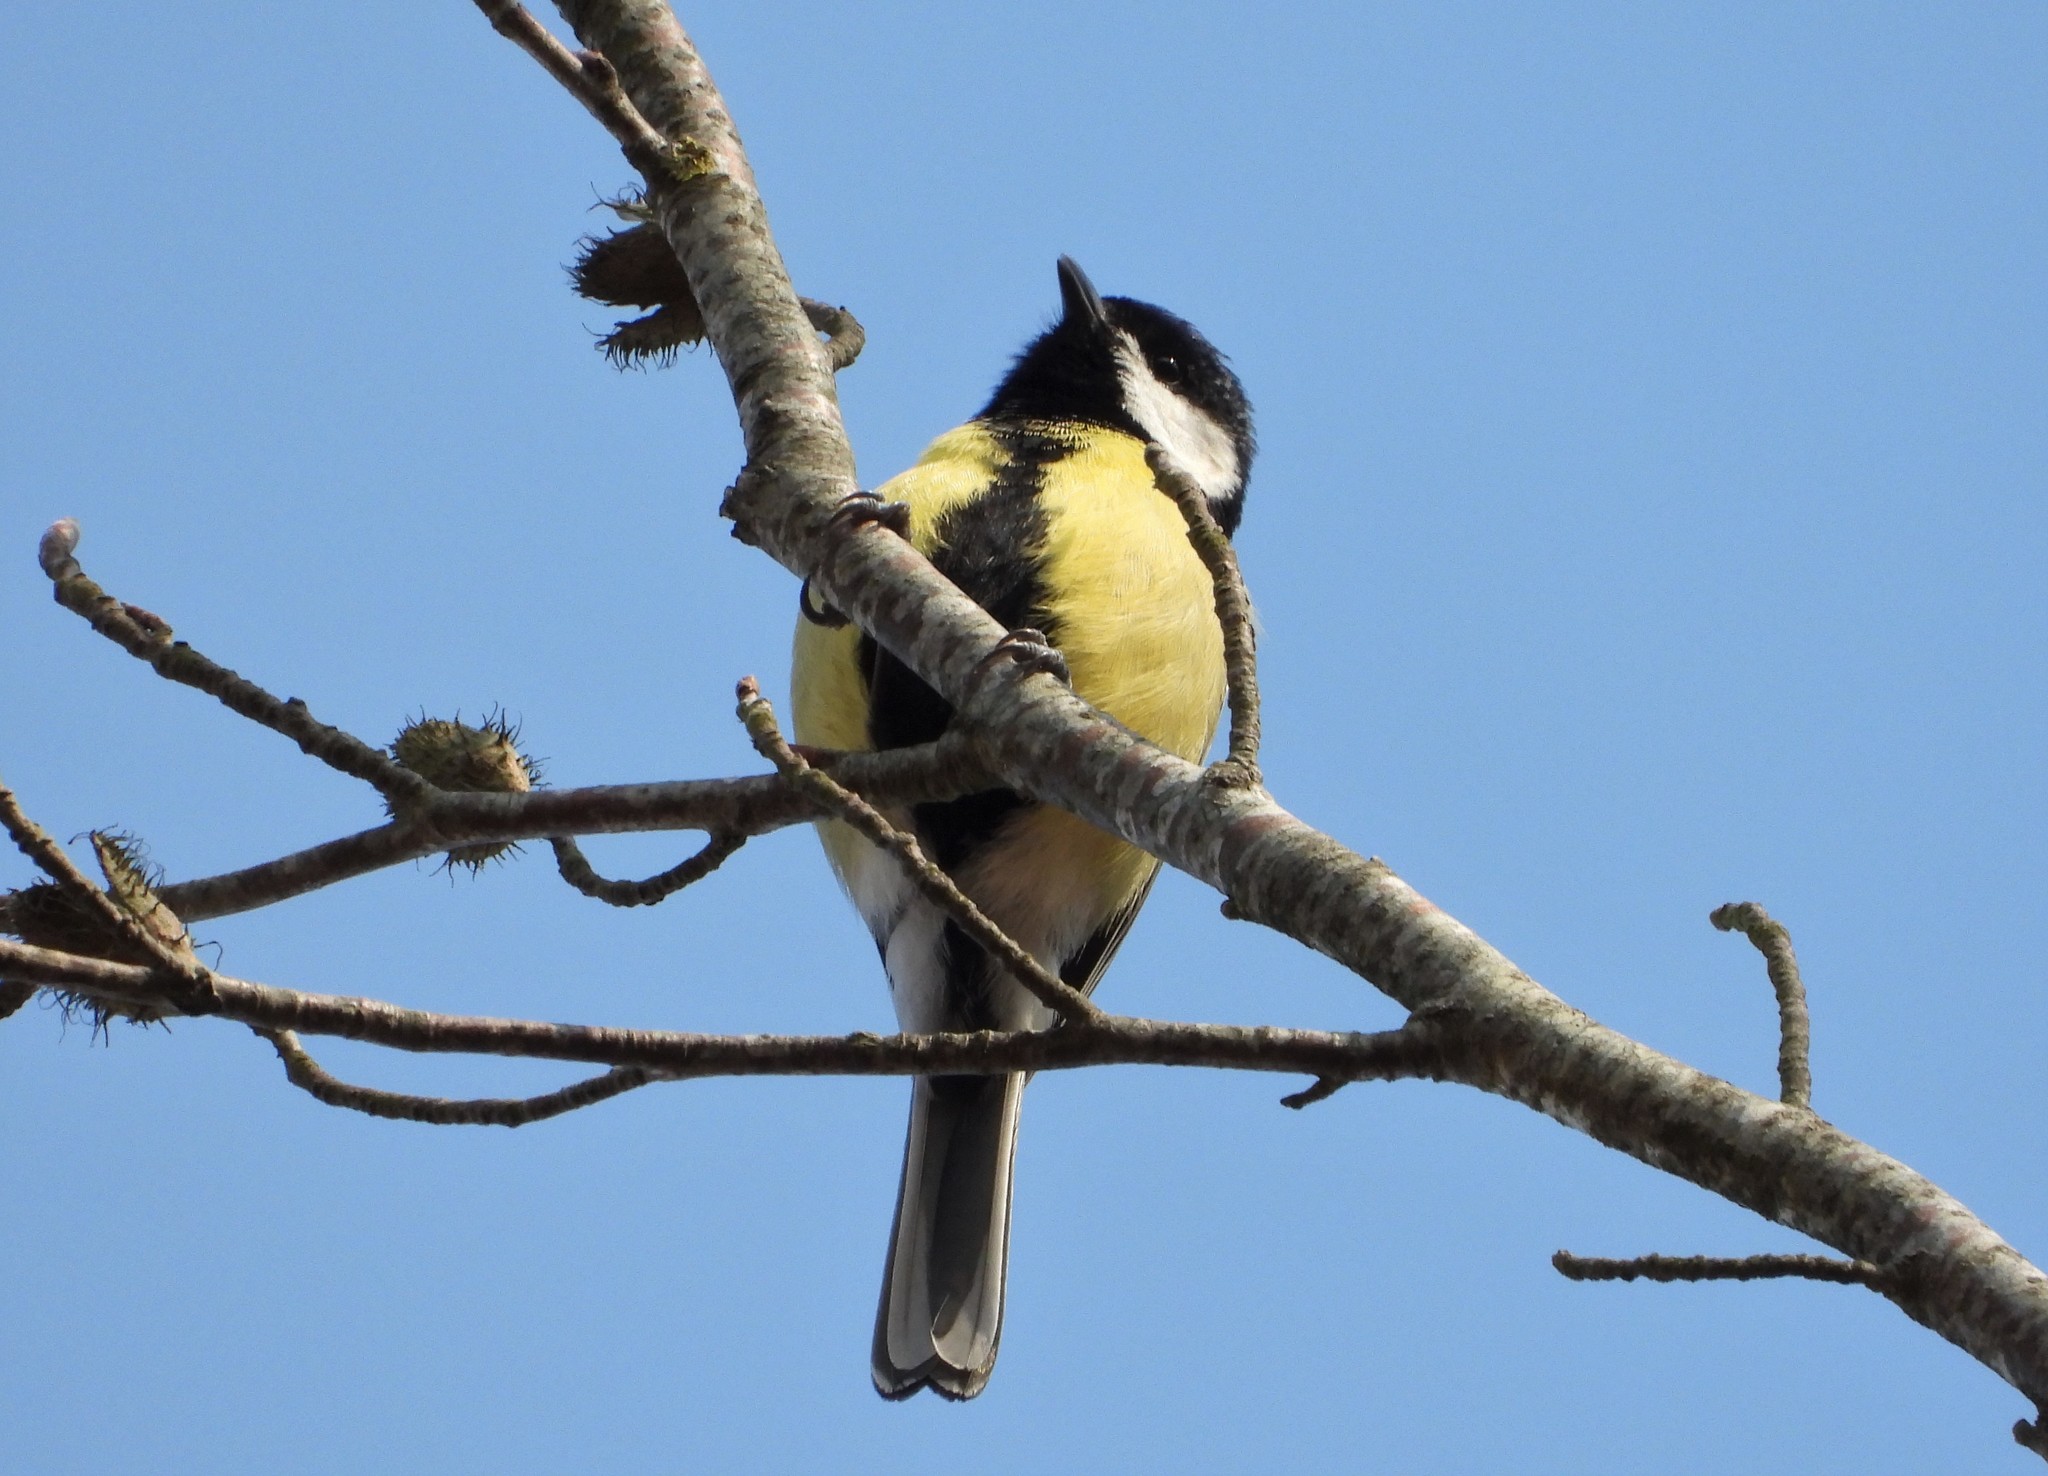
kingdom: Animalia
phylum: Chordata
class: Aves
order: Passeriformes
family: Paridae
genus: Parus
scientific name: Parus major
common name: Great tit
